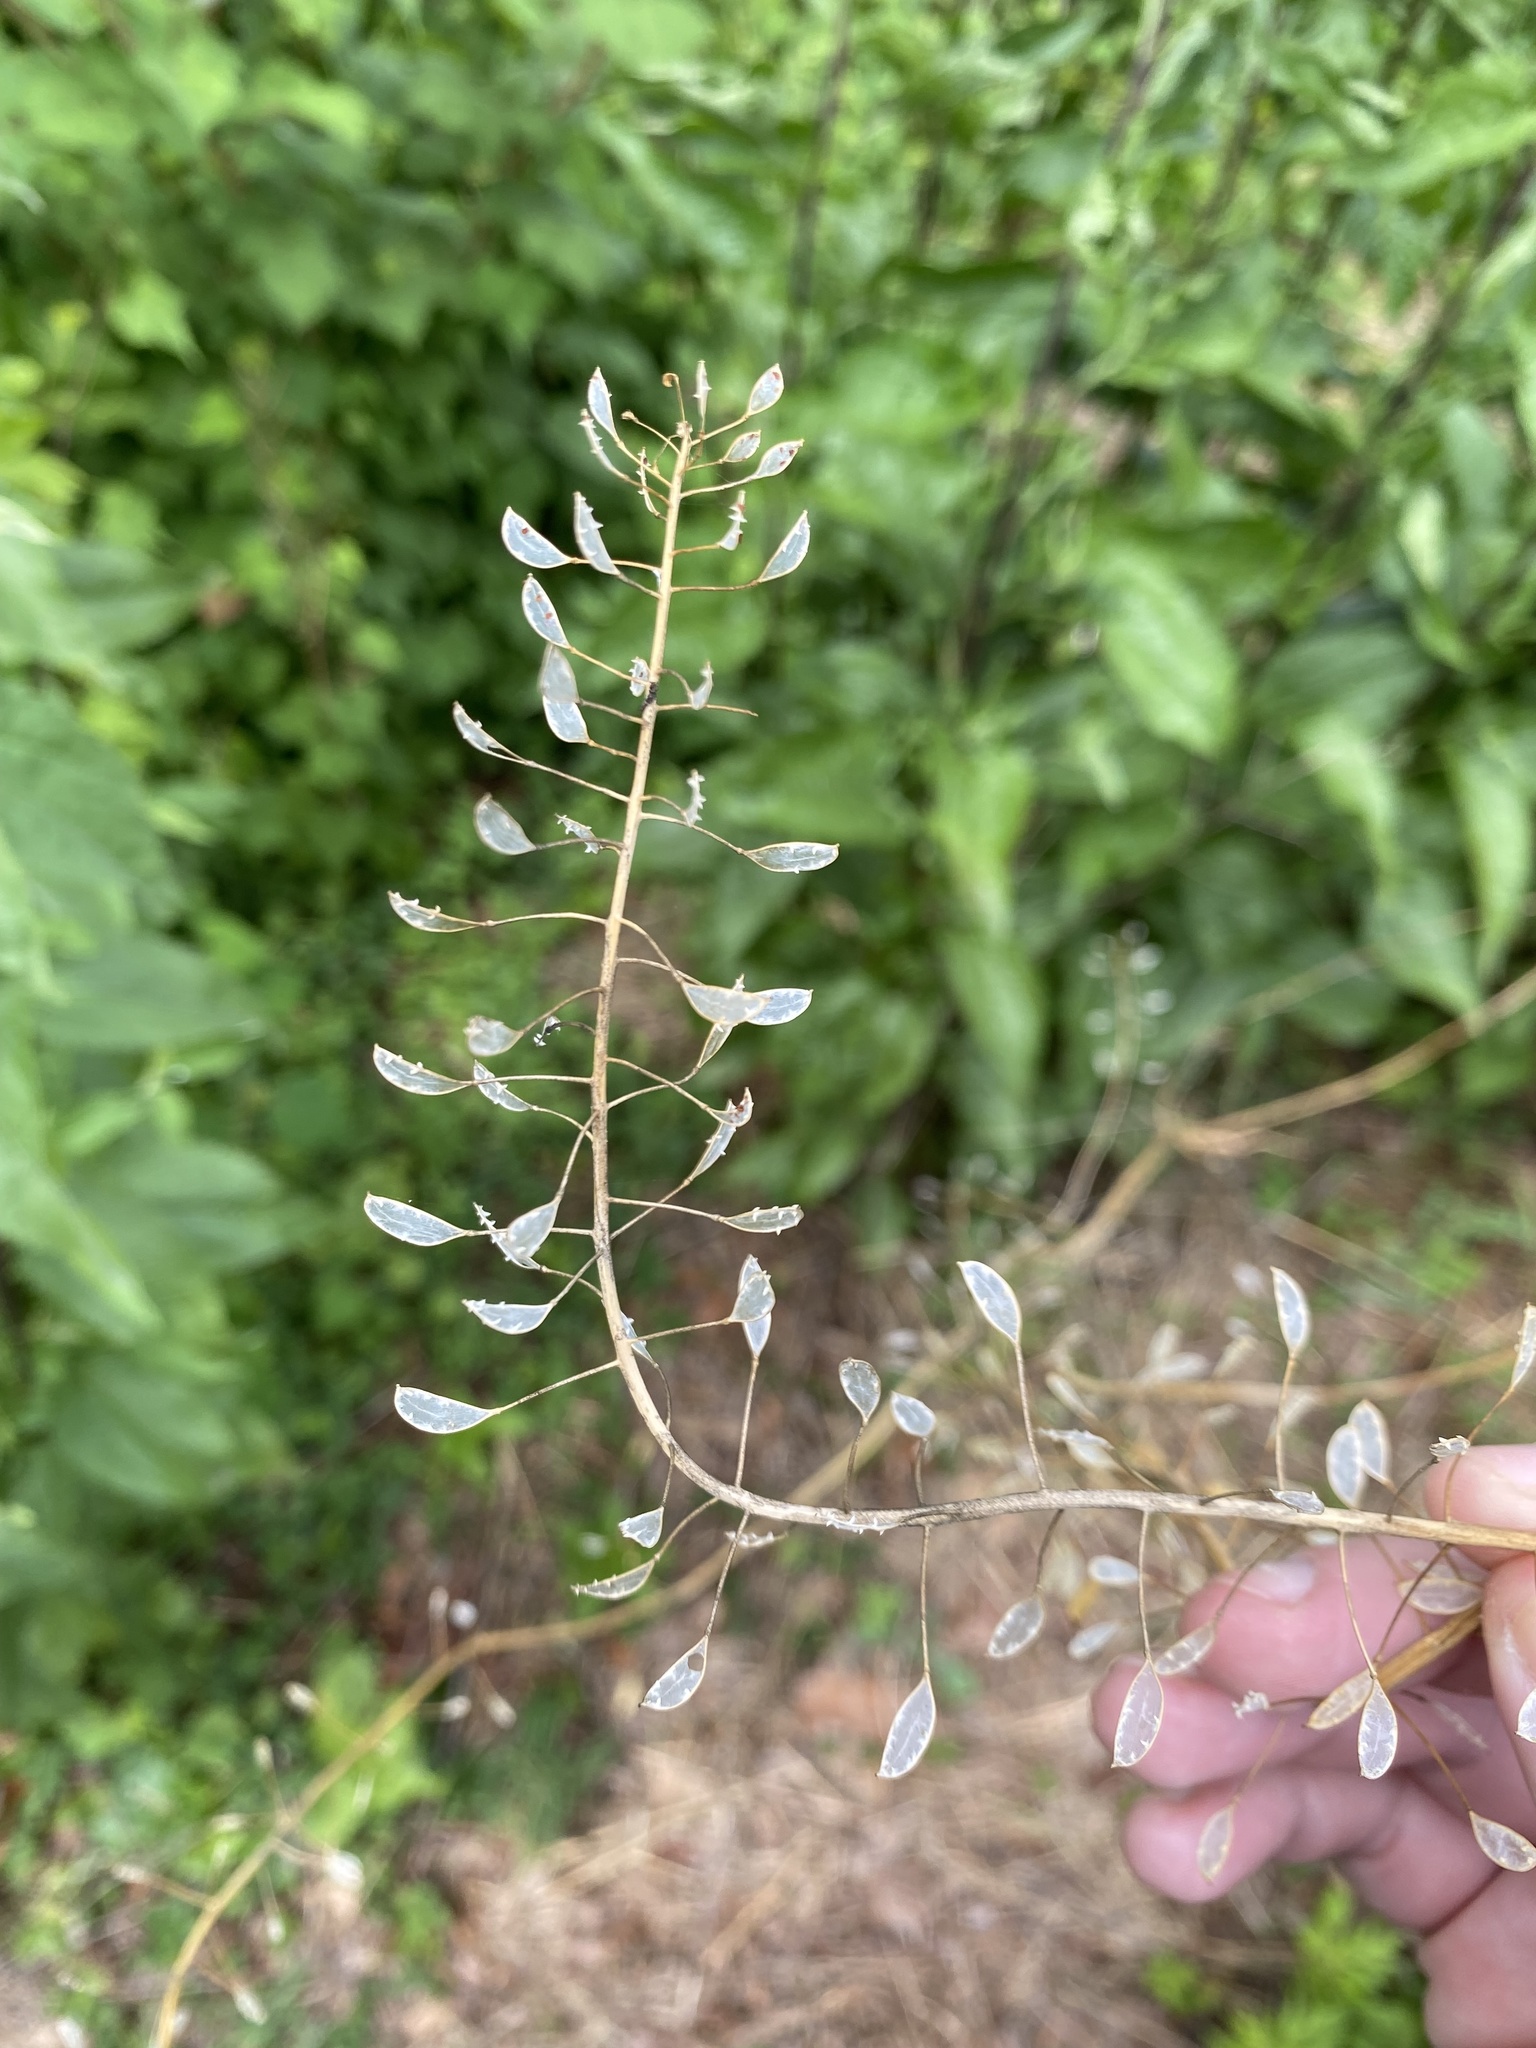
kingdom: Plantae
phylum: Tracheophyta
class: Magnoliopsida
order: Brassicales
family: Brassicaceae
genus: Mummenhoffia
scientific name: Mummenhoffia alliacea
